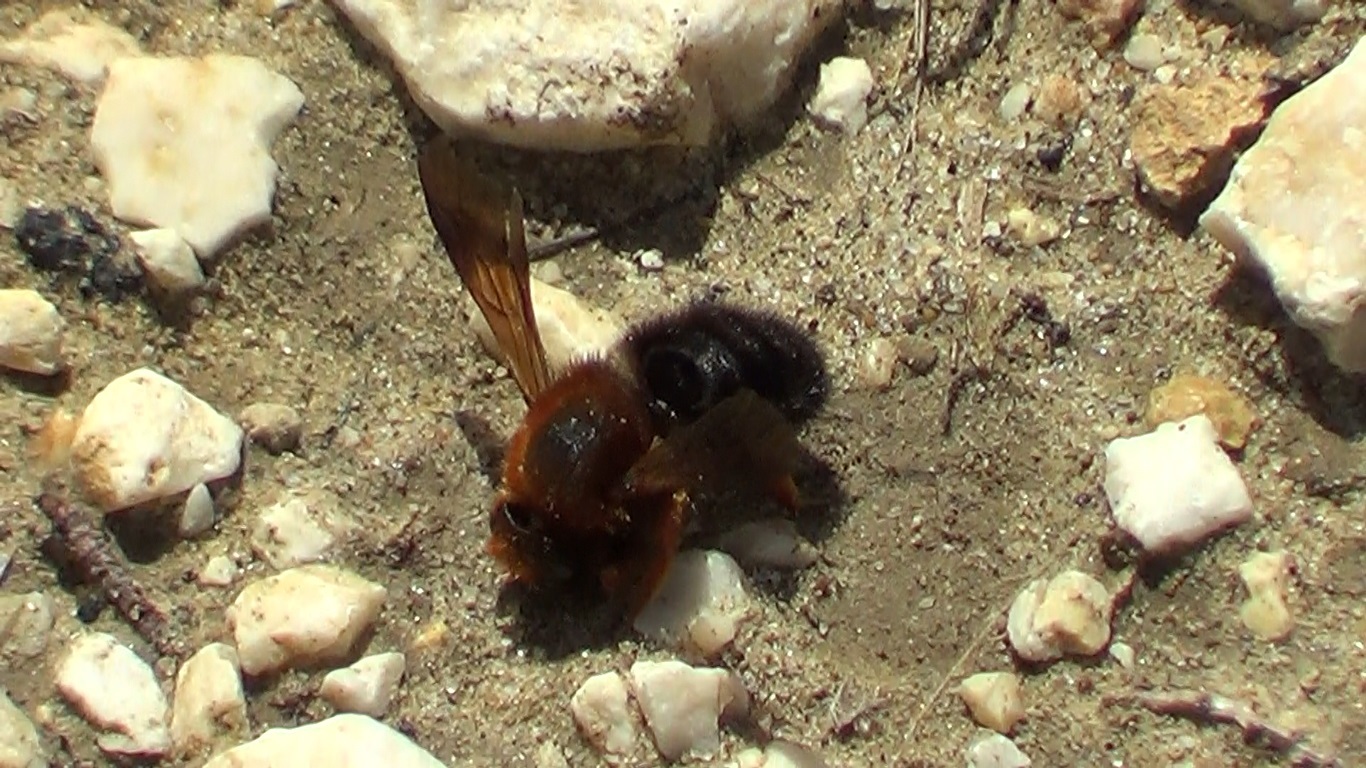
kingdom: Animalia
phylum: Arthropoda
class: Insecta
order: Hymenoptera
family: Megachilidae
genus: Megachile
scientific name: Megachile sicula
